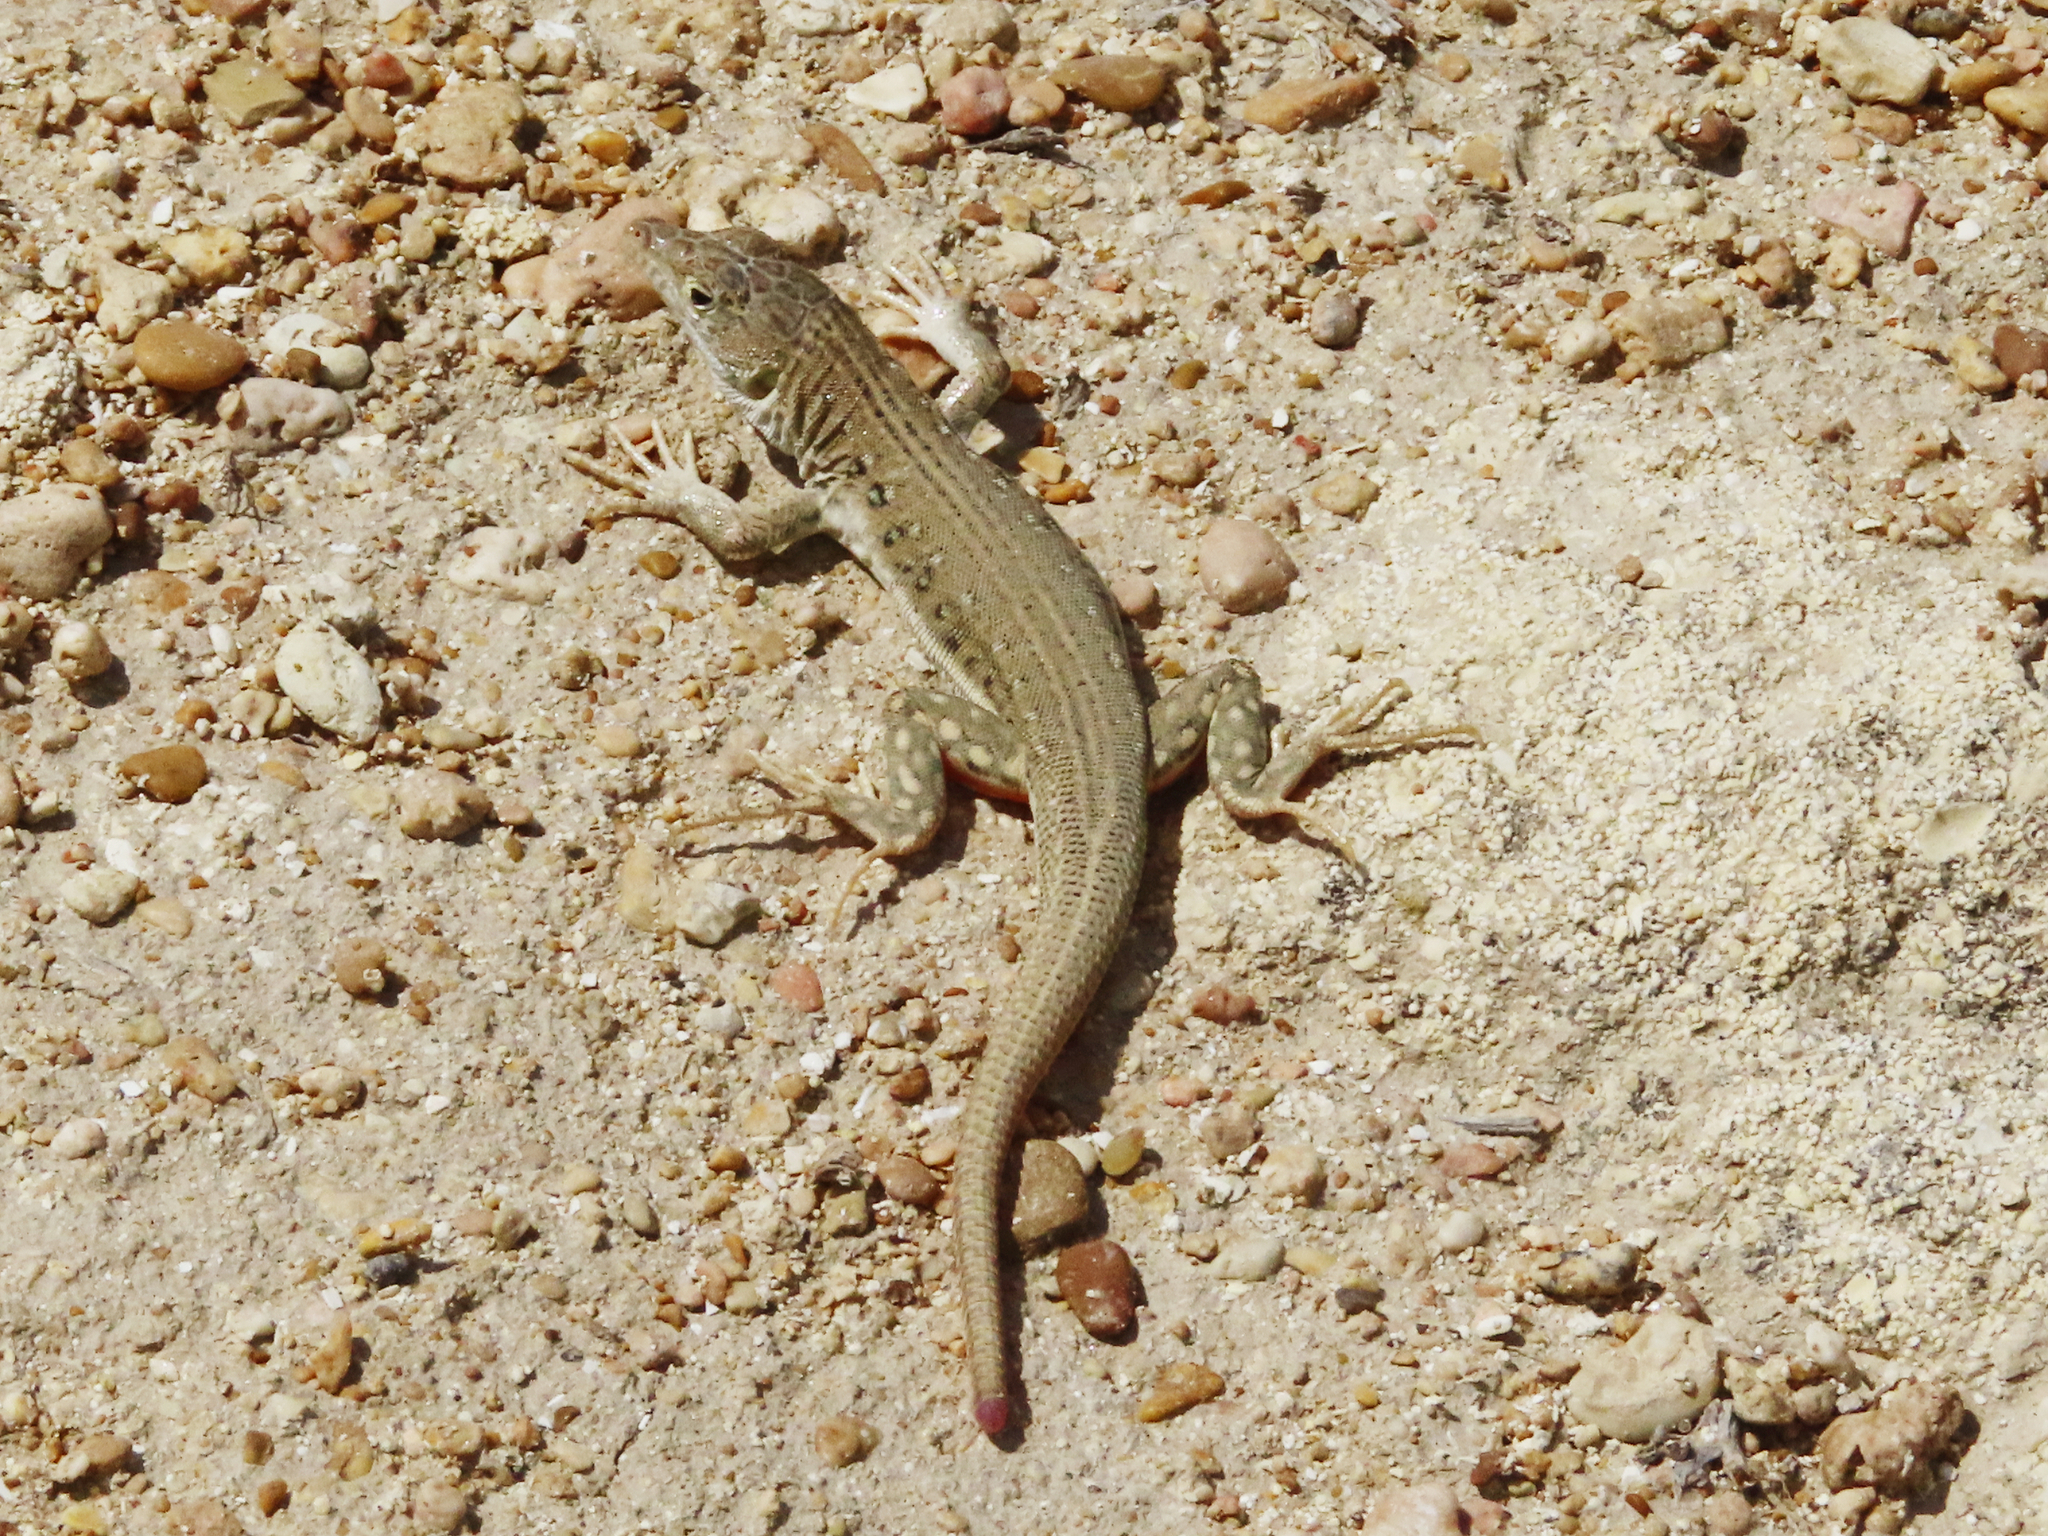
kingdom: Animalia
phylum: Chordata
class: Squamata
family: Lacertidae
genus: Eremias
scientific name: Eremias velox
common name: Central asian racerunner
